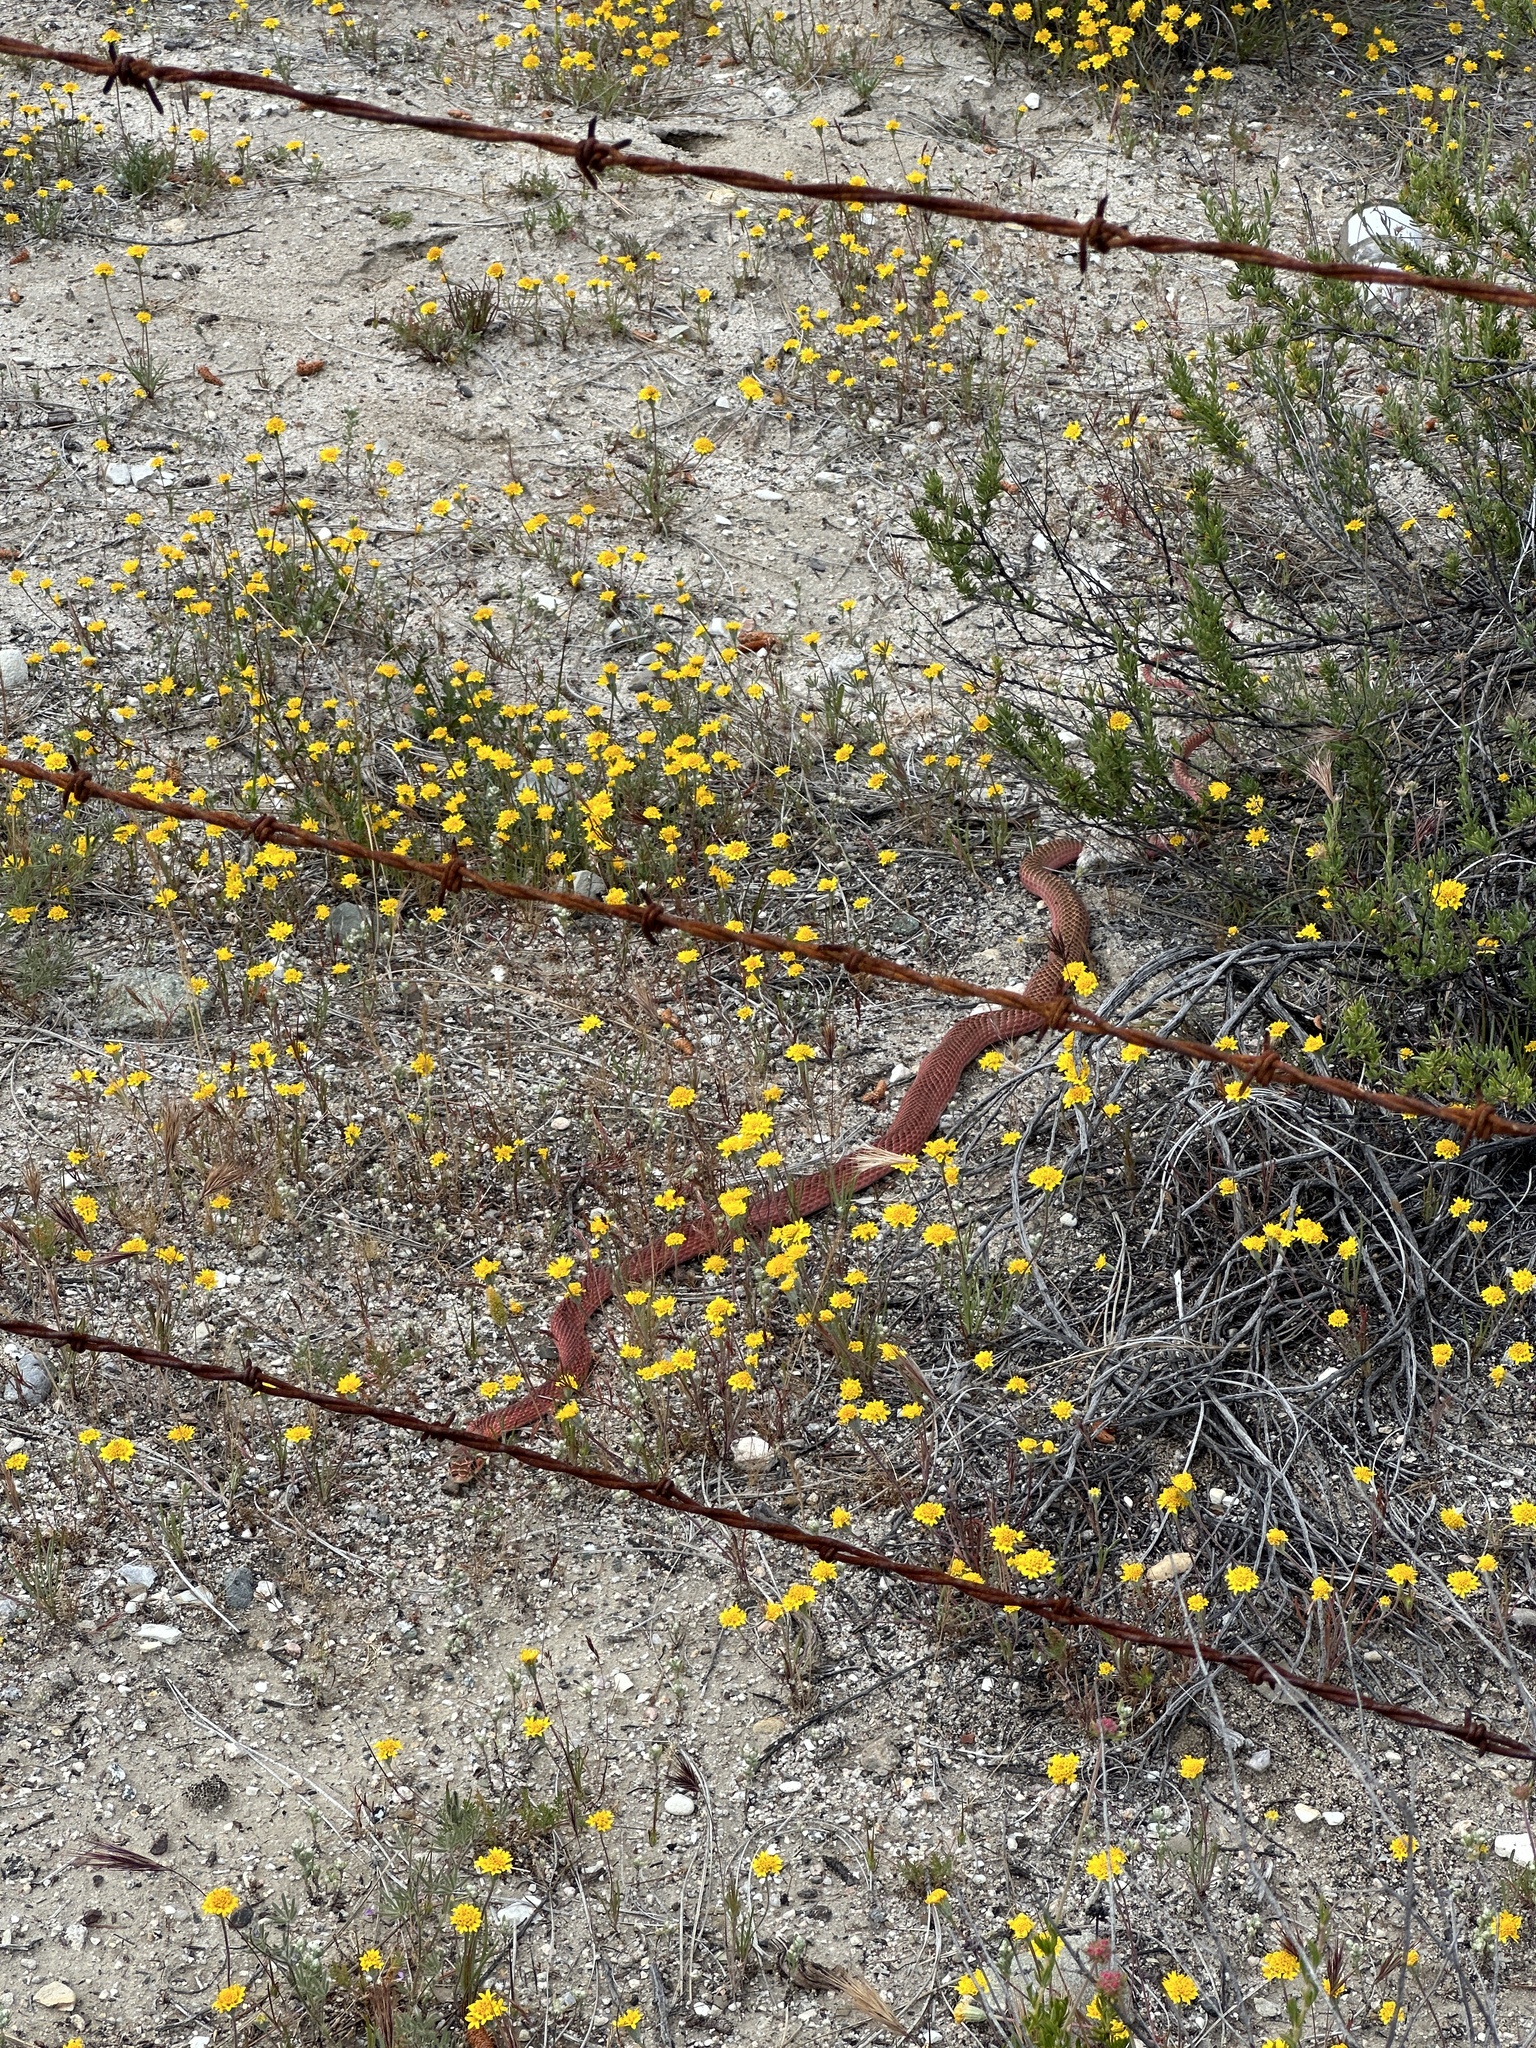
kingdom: Animalia
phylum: Chordata
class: Squamata
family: Colubridae
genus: Masticophis
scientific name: Masticophis flagellum
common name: Coachwhip
